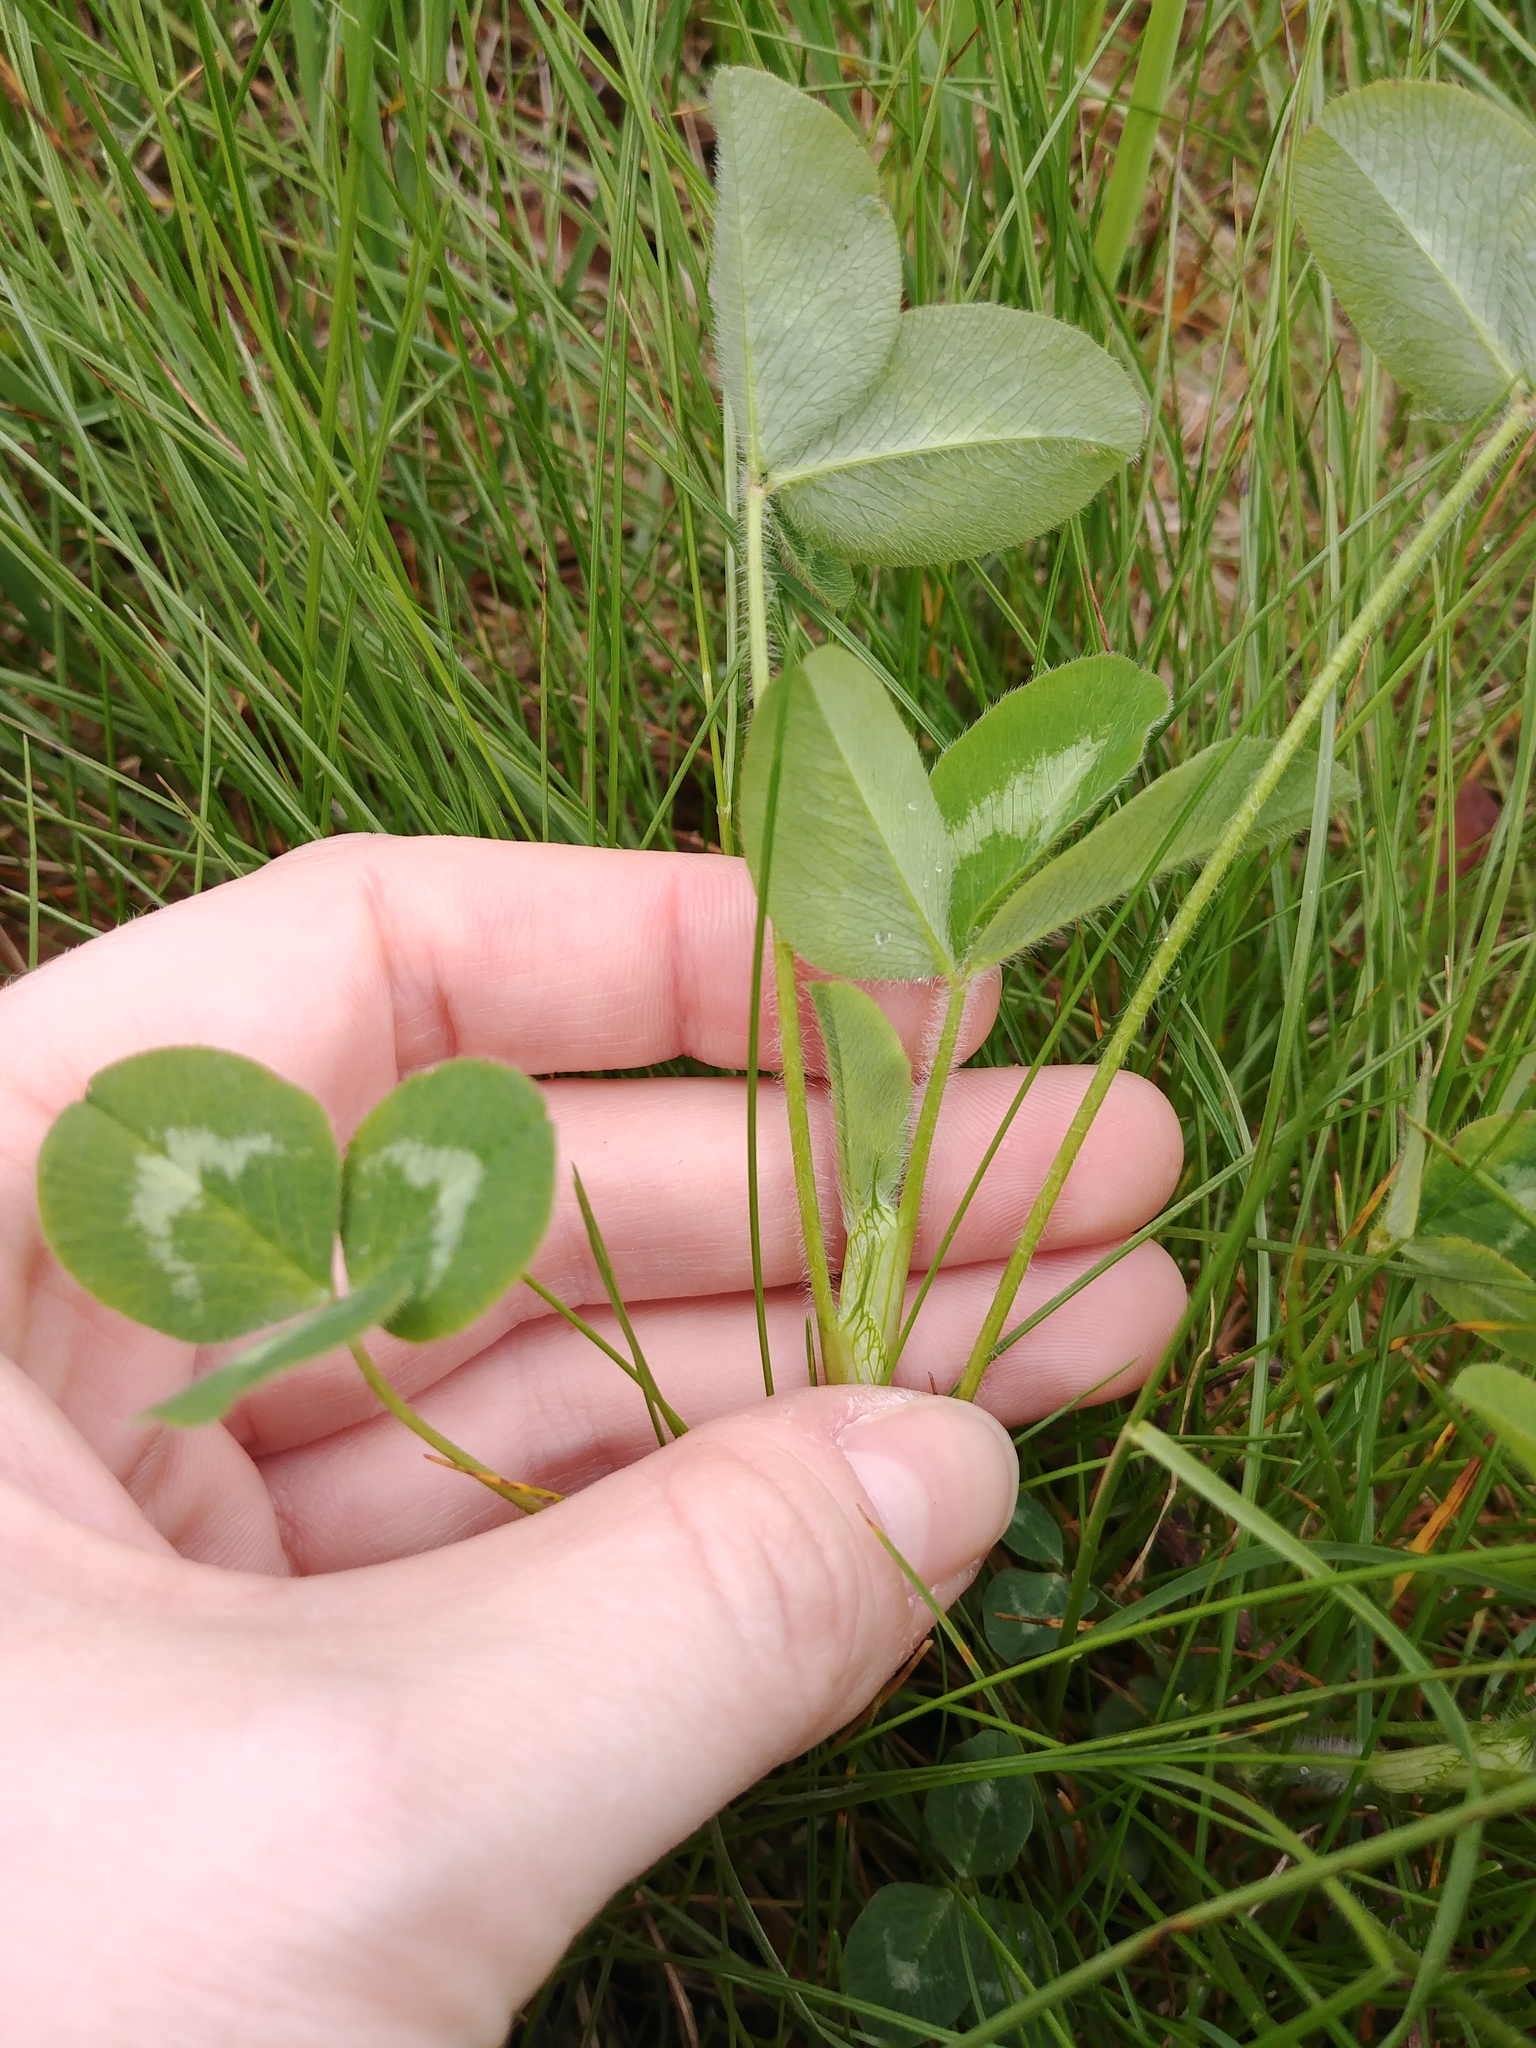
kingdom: Plantae
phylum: Tracheophyta
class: Magnoliopsida
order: Fabales
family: Fabaceae
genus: Trifolium
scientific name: Trifolium pratense
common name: Red clover
